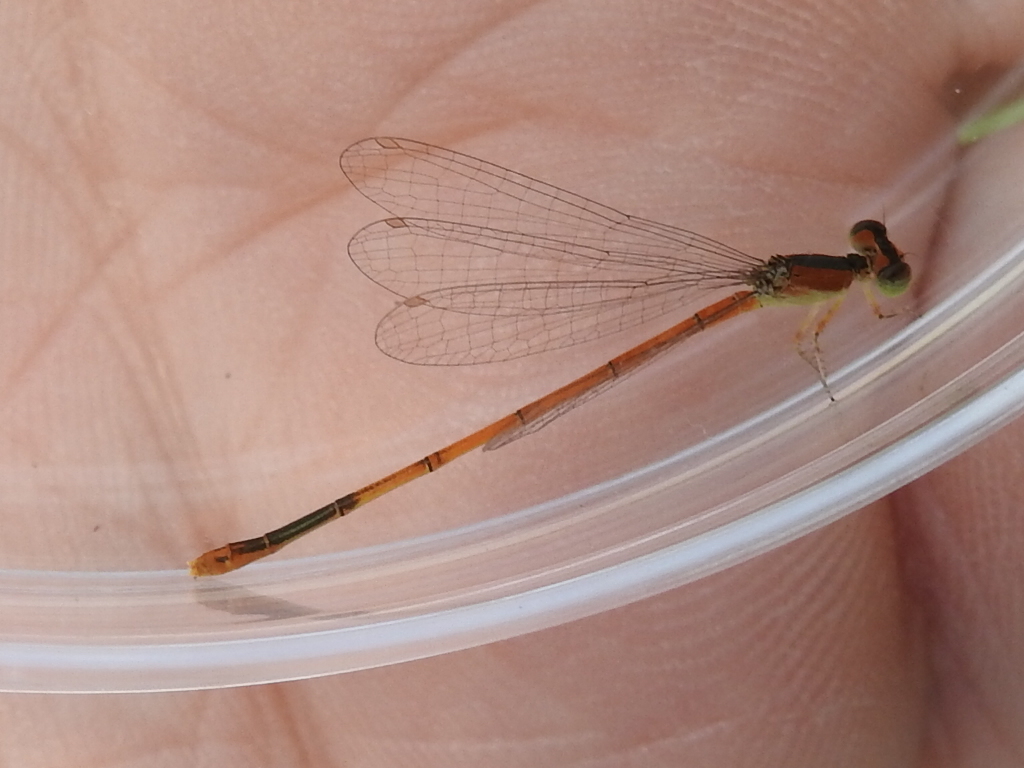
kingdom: Animalia
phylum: Arthropoda
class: Insecta
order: Odonata
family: Coenagrionidae
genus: Ischnura
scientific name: Ischnura hastata
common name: Citrine forktail
